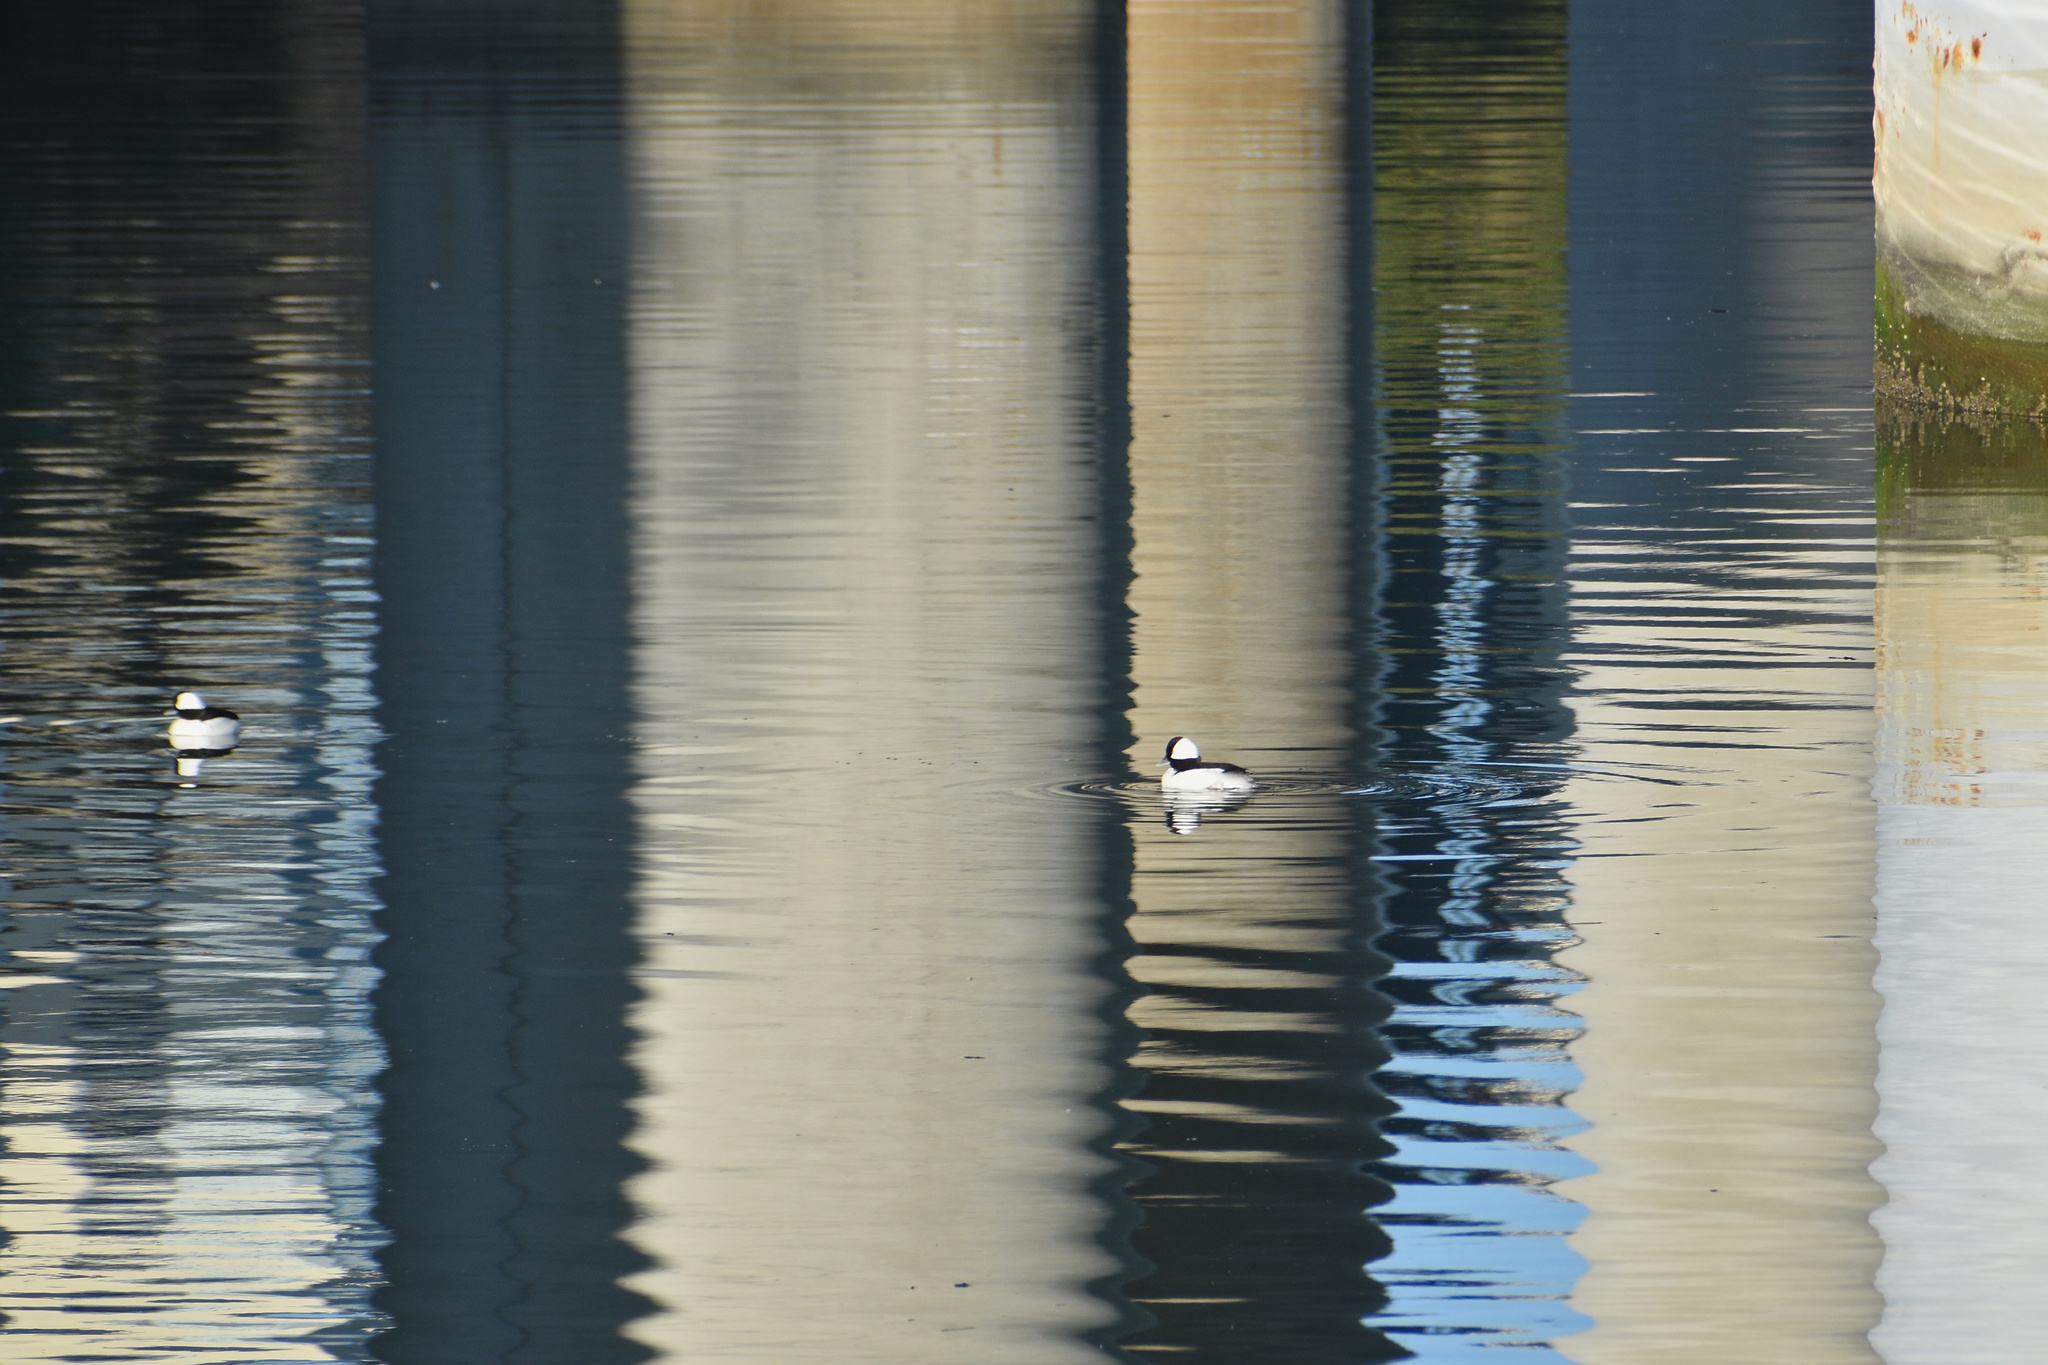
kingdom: Animalia
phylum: Chordata
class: Aves
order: Anseriformes
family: Anatidae
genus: Bucephala
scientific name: Bucephala albeola
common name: Bufflehead
